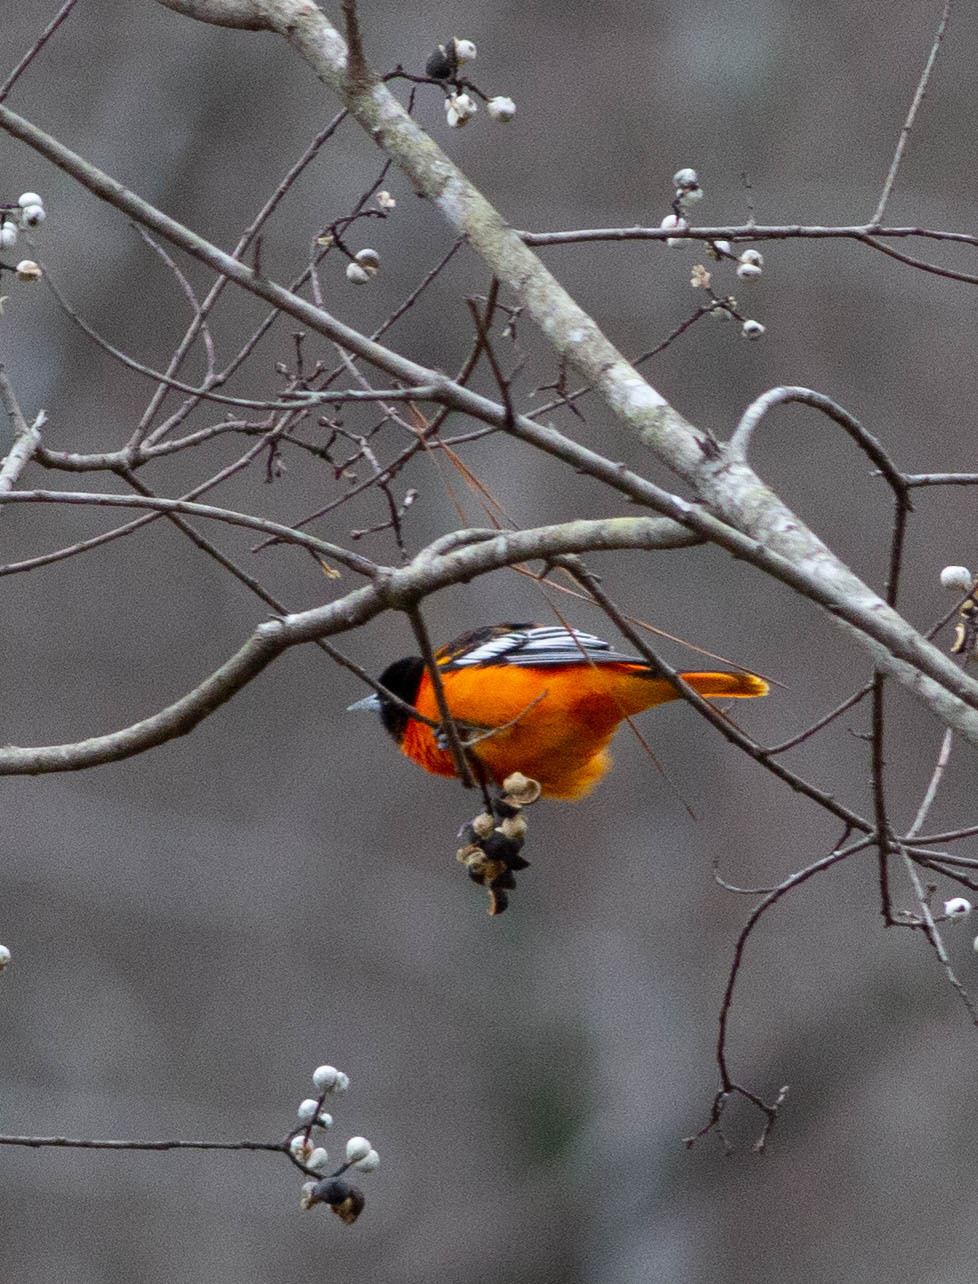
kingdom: Animalia
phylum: Chordata
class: Aves
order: Passeriformes
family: Icteridae
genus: Icterus
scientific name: Icterus galbula
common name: Baltimore oriole
